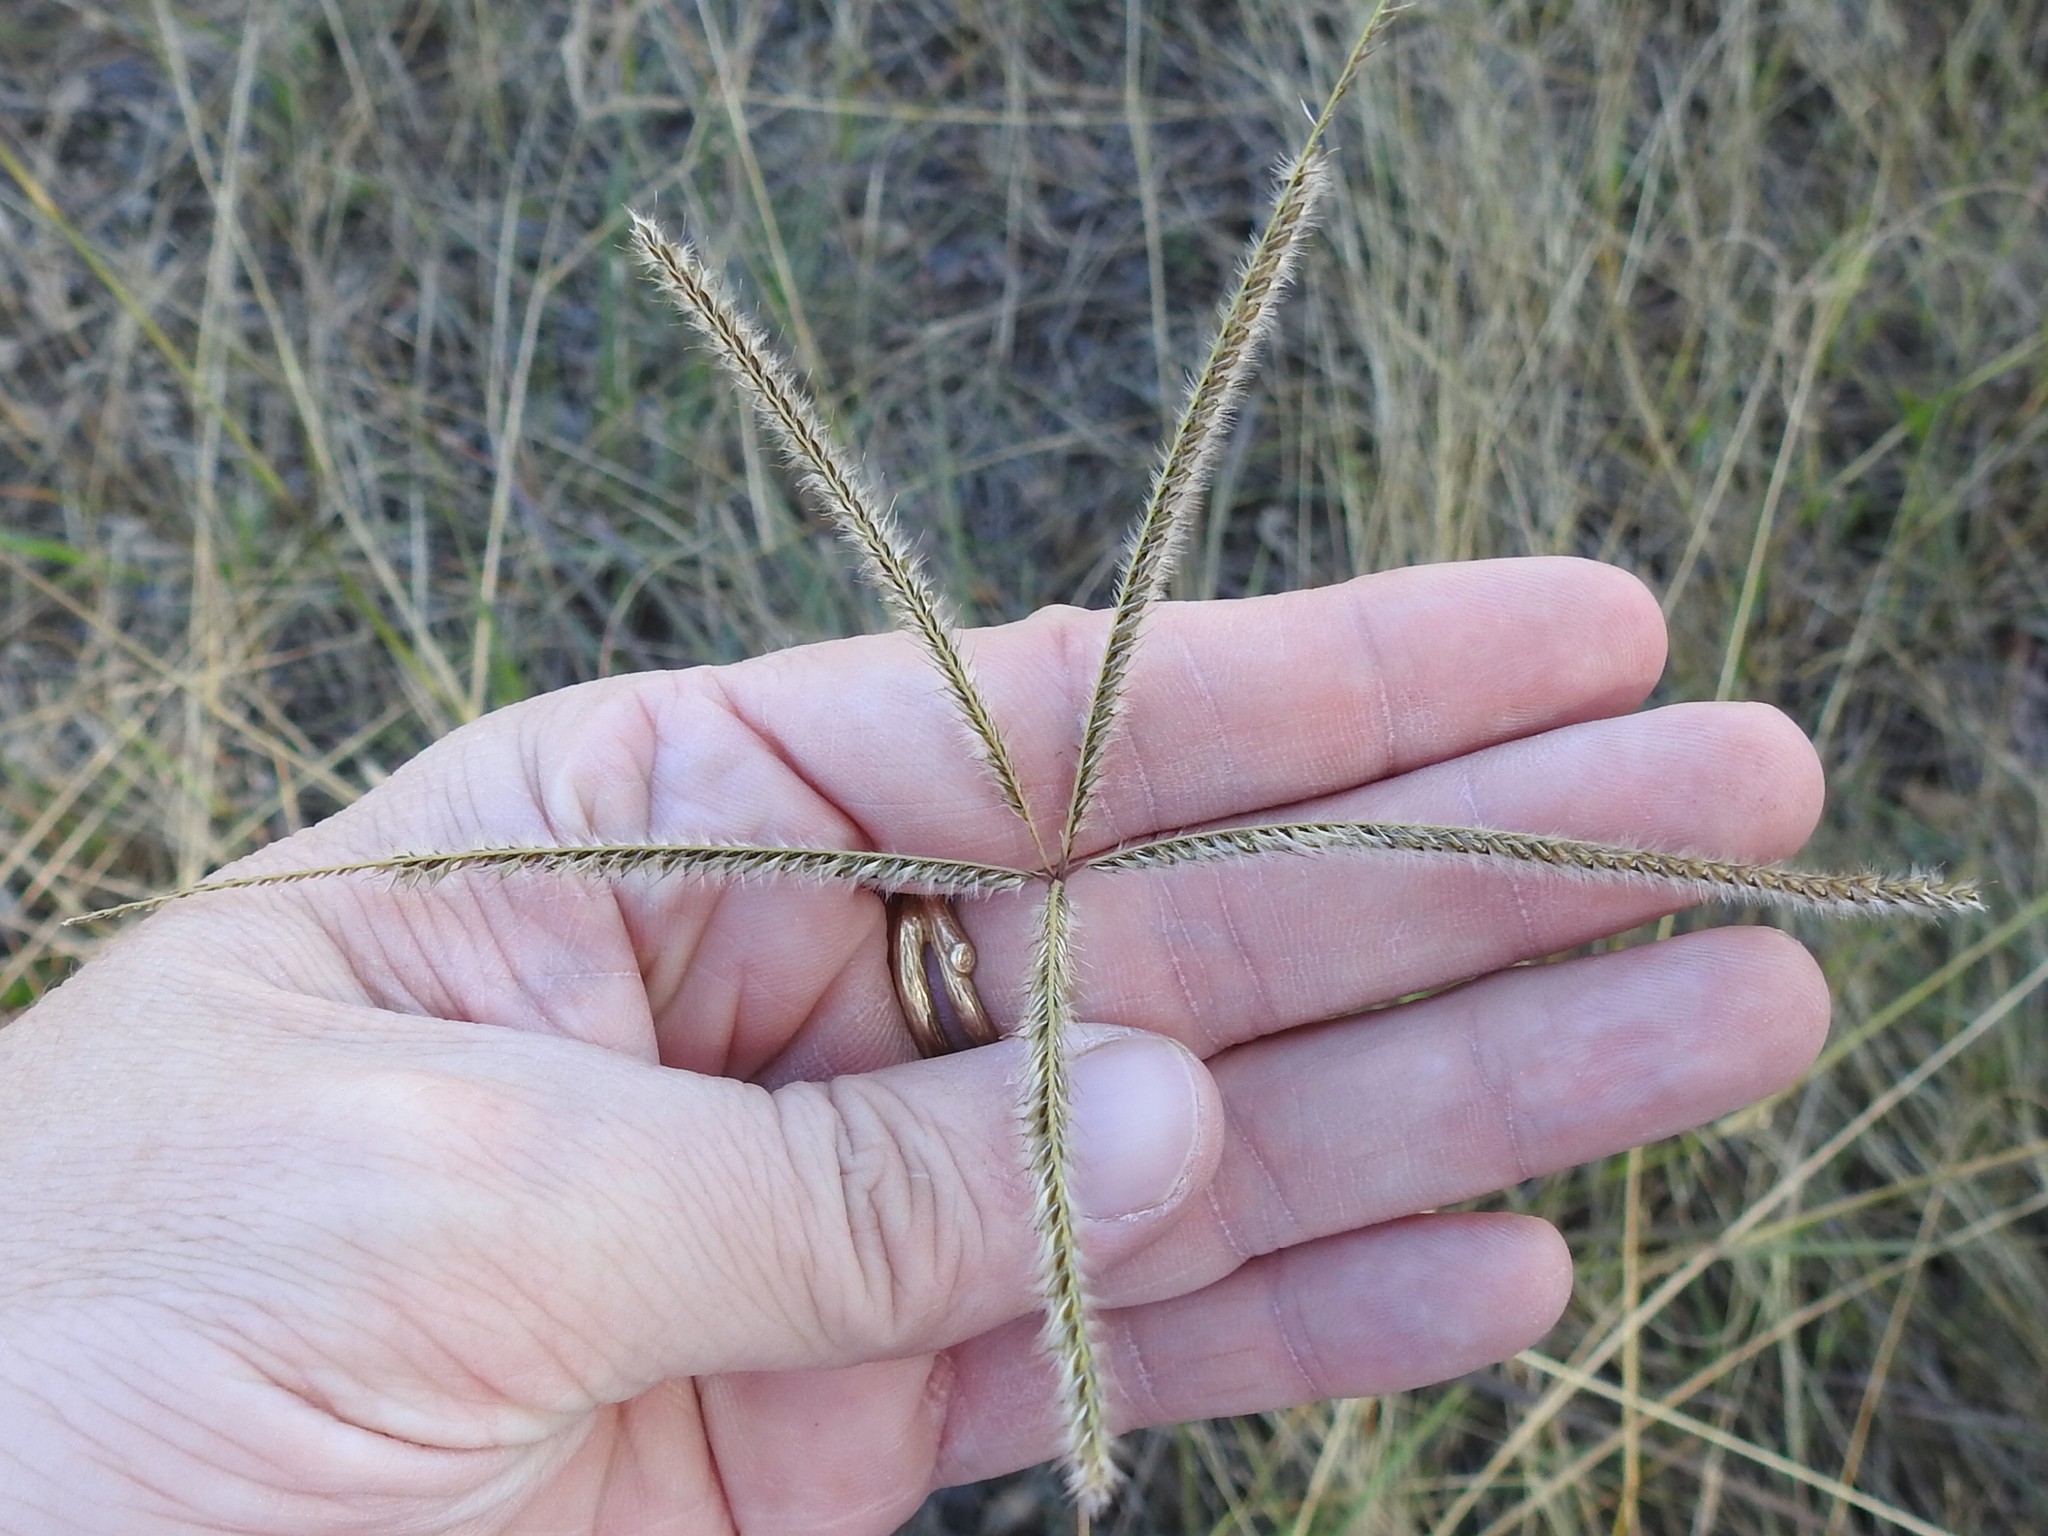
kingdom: Plantae
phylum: Tracheophyta
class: Liliopsida
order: Poales
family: Poaceae
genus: Stapfochloa
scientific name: Stapfochloa canterae
